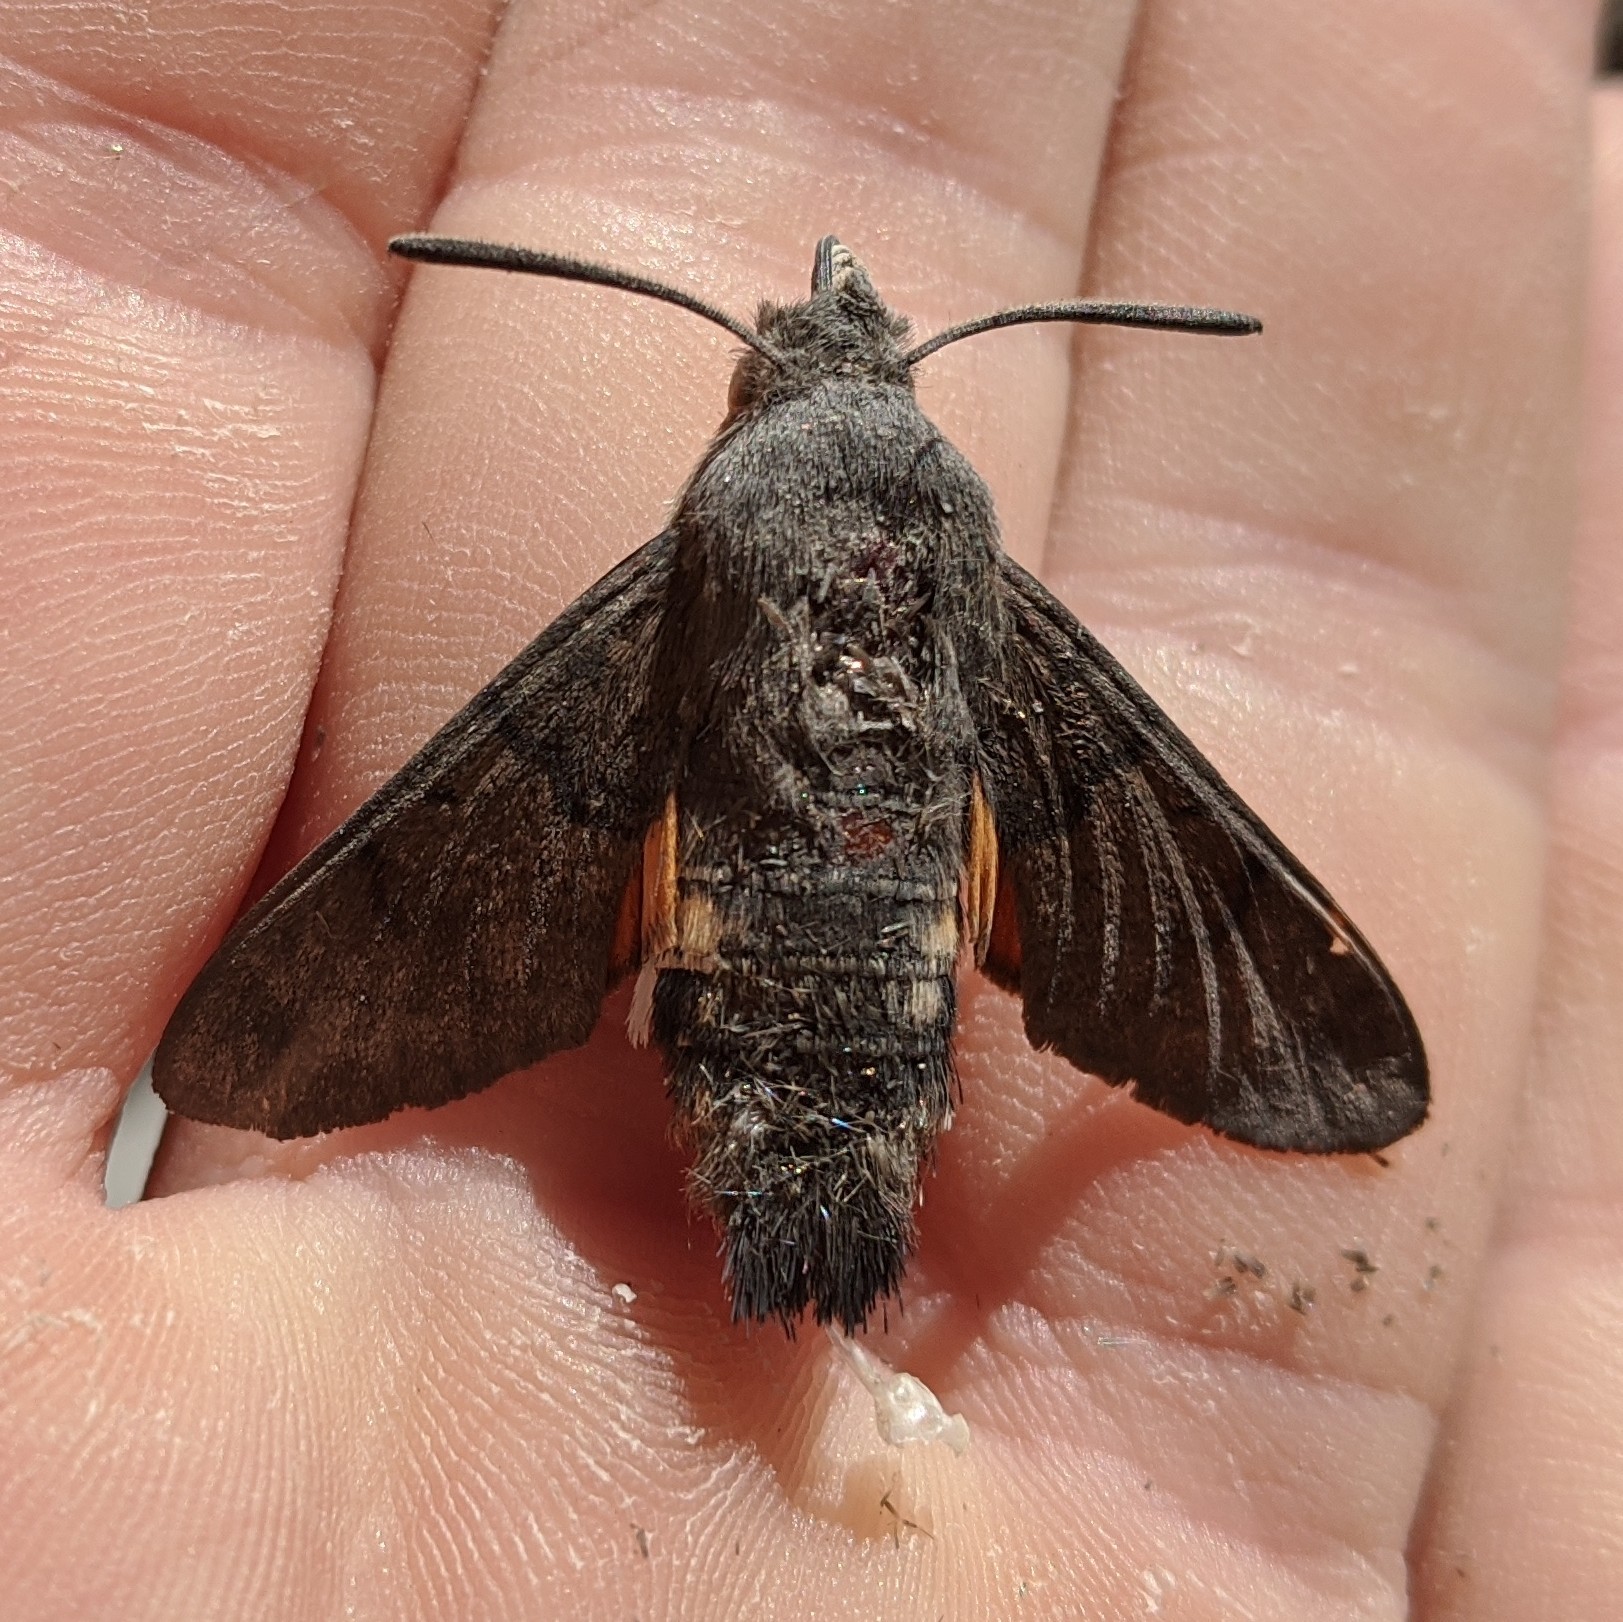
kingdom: Animalia
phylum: Arthropoda
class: Insecta
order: Lepidoptera
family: Sphingidae
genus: Macroglossum
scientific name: Macroglossum stellatarum
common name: Humming-bird hawk-moth
